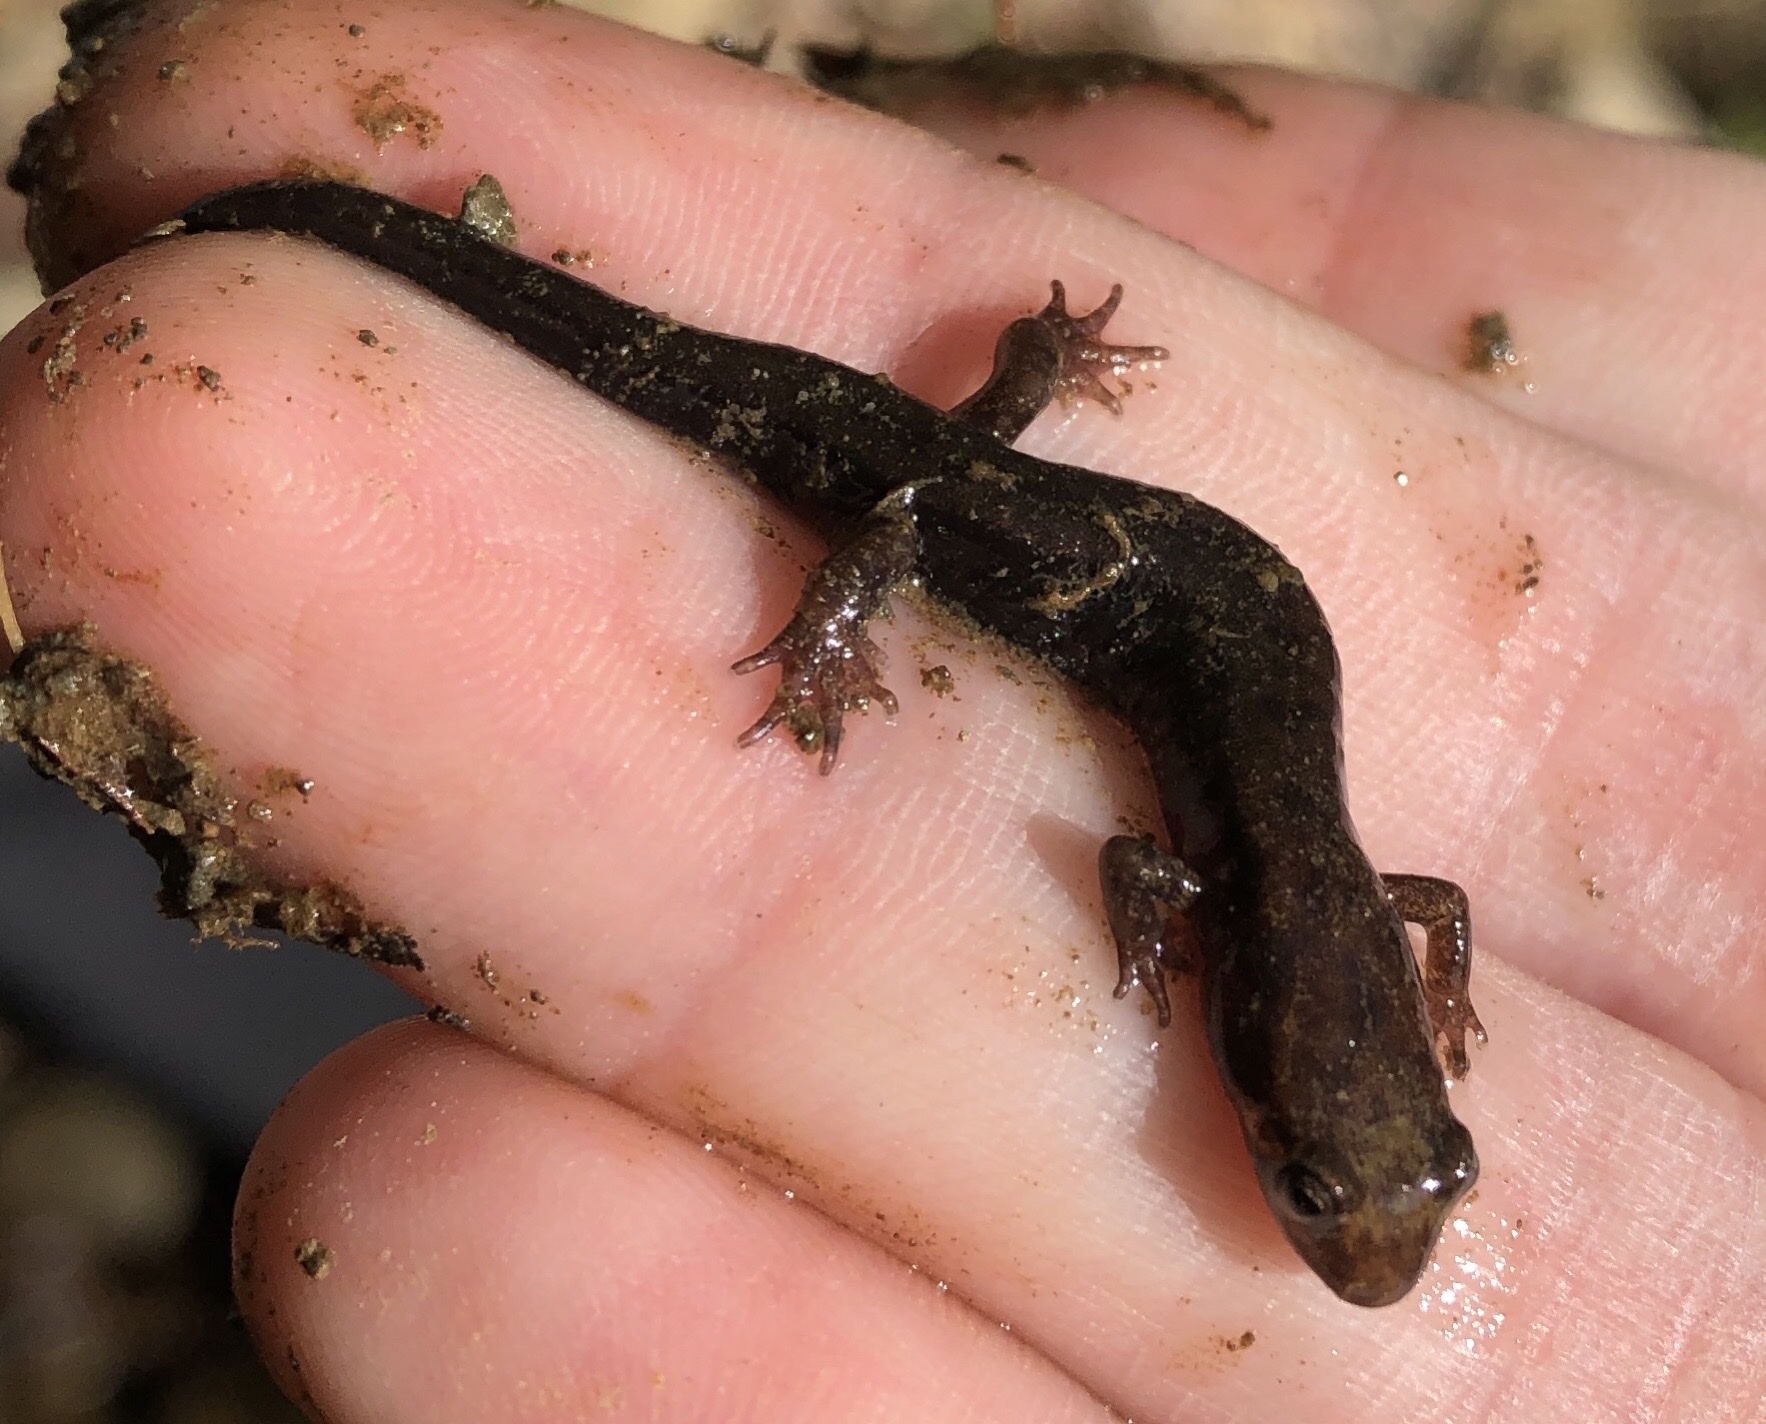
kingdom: Animalia
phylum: Chordata
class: Amphibia
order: Caudata
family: Plethodontidae
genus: Desmognathus
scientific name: Desmognathus ochrophaeus
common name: Allegheny mountain dusky salamander
